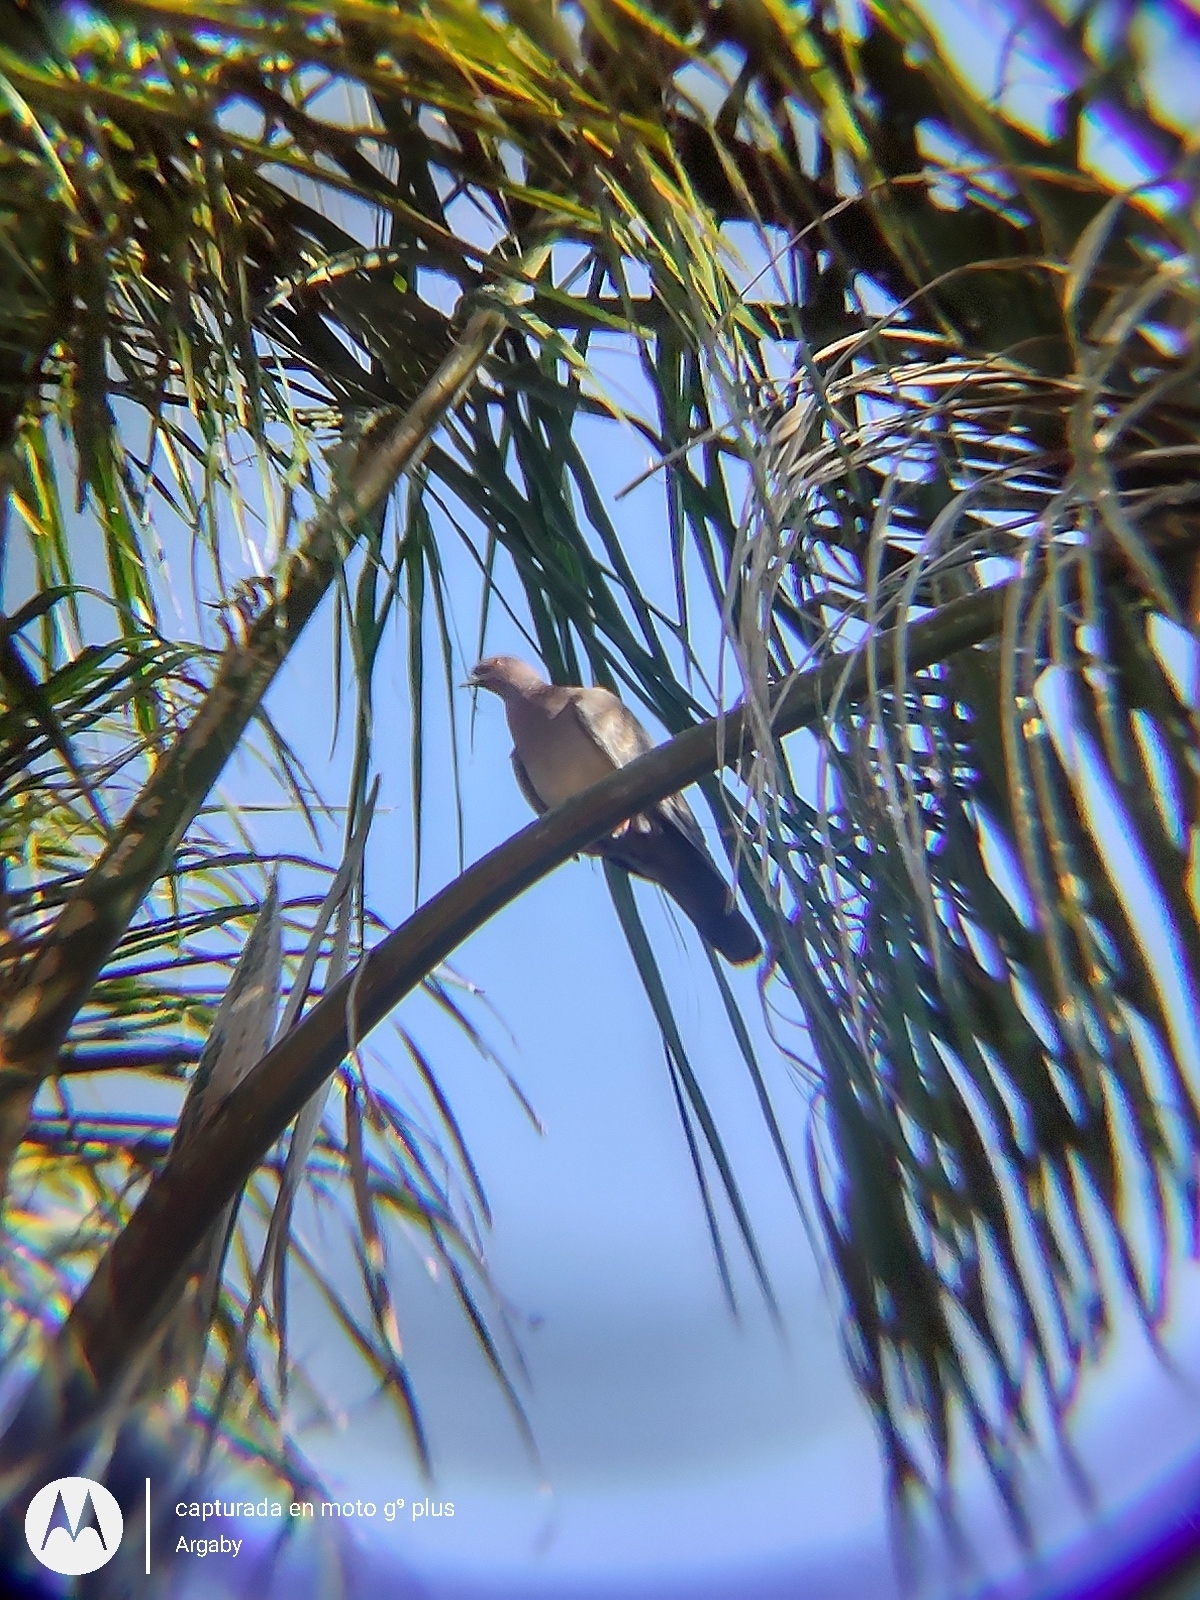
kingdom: Animalia
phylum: Chordata
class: Aves
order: Columbiformes
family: Columbidae
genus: Patagioenas
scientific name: Patagioenas picazuro
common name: Picazuro pigeon
